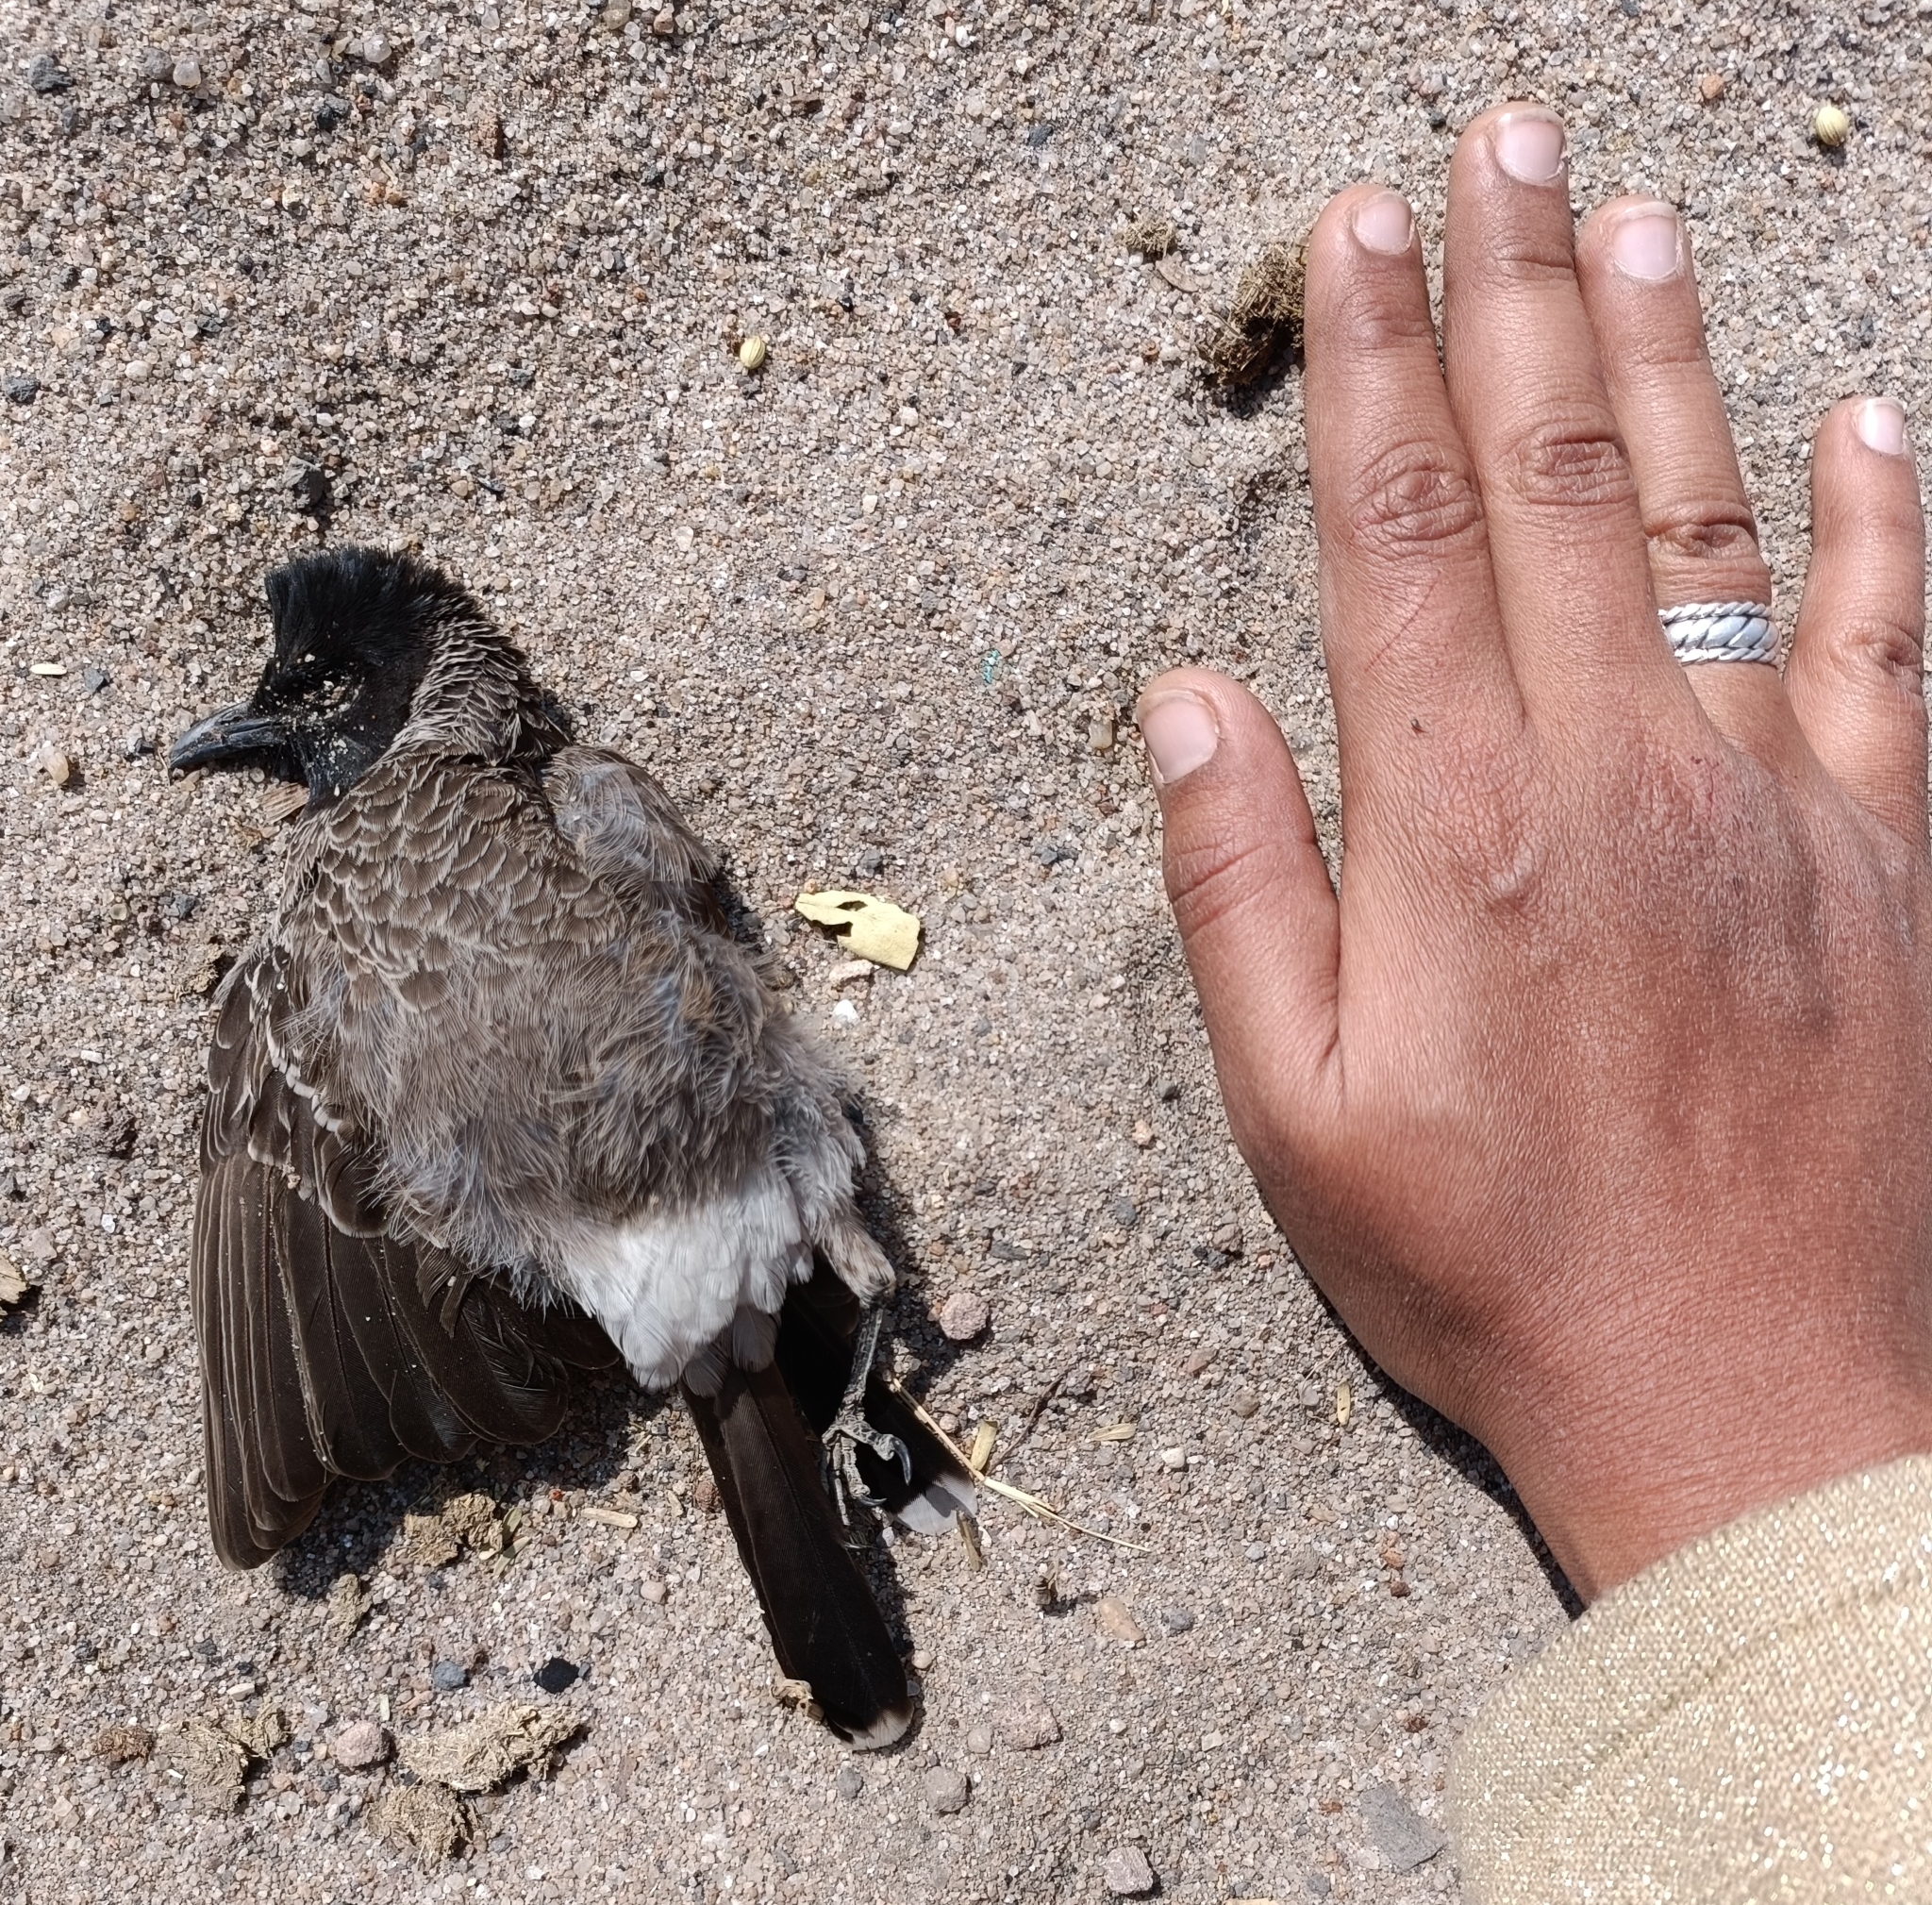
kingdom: Animalia
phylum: Chordata
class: Aves
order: Passeriformes
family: Pycnonotidae
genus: Pycnonotus
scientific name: Pycnonotus cafer
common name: Red-vented bulbul
